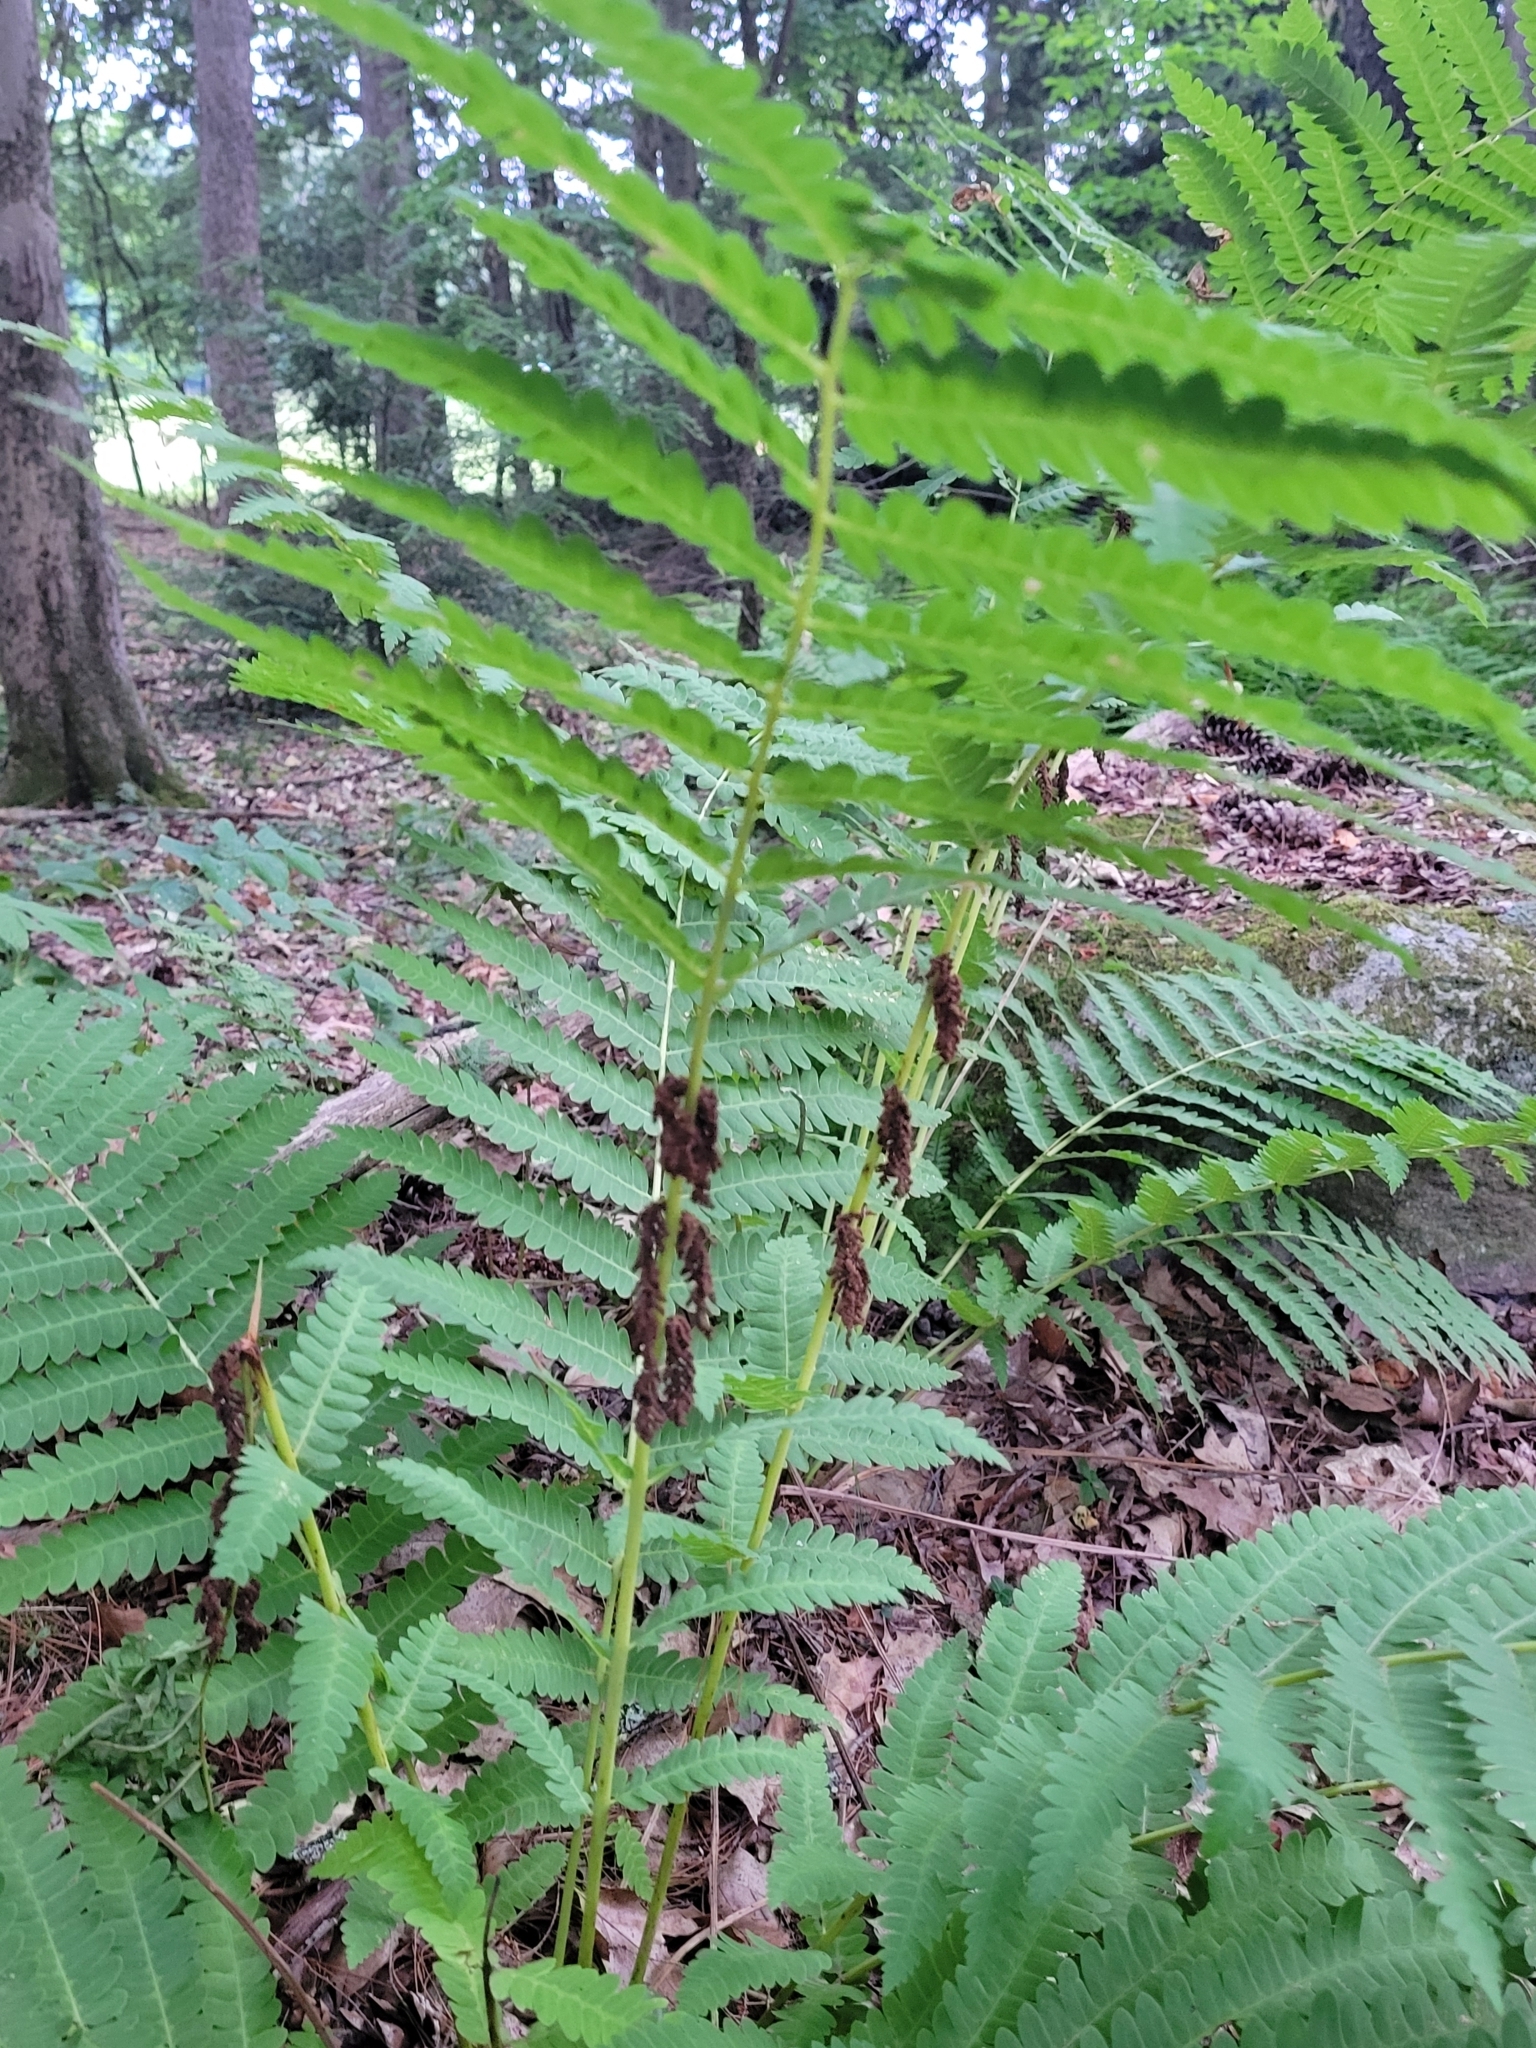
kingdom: Plantae
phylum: Tracheophyta
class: Polypodiopsida
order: Osmundales
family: Osmundaceae
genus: Claytosmunda
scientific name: Claytosmunda claytoniana
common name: Clayton's fern
